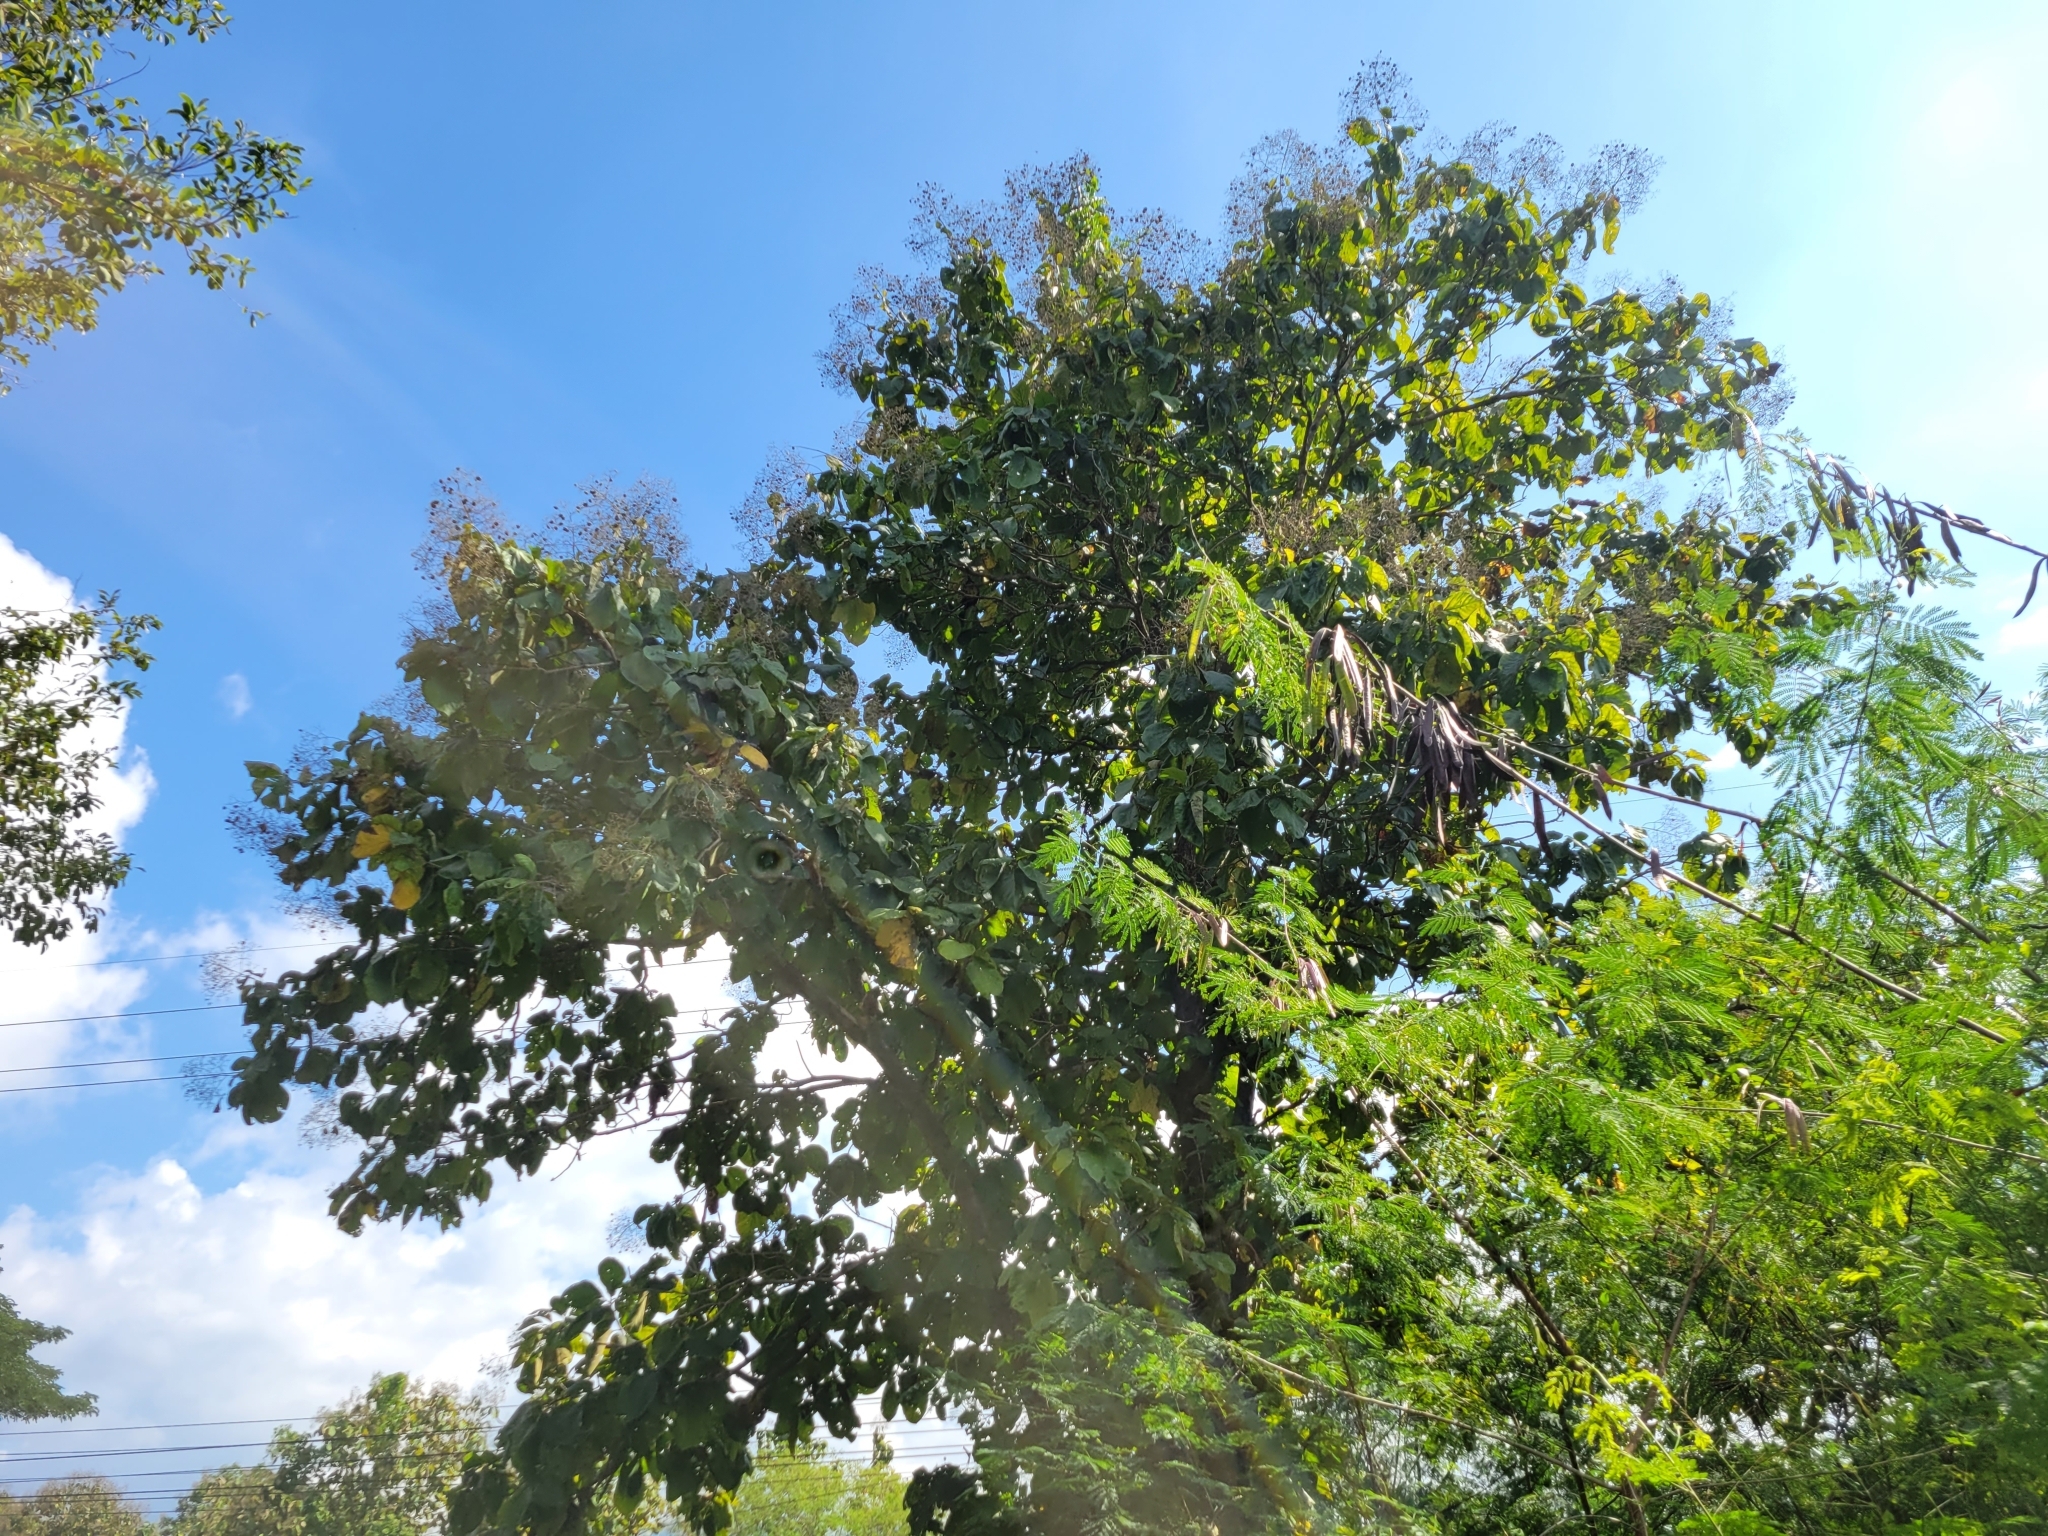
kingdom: Plantae
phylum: Tracheophyta
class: Magnoliopsida
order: Lamiales
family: Lamiaceae
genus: Tectona
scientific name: Tectona grandis
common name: Teak
